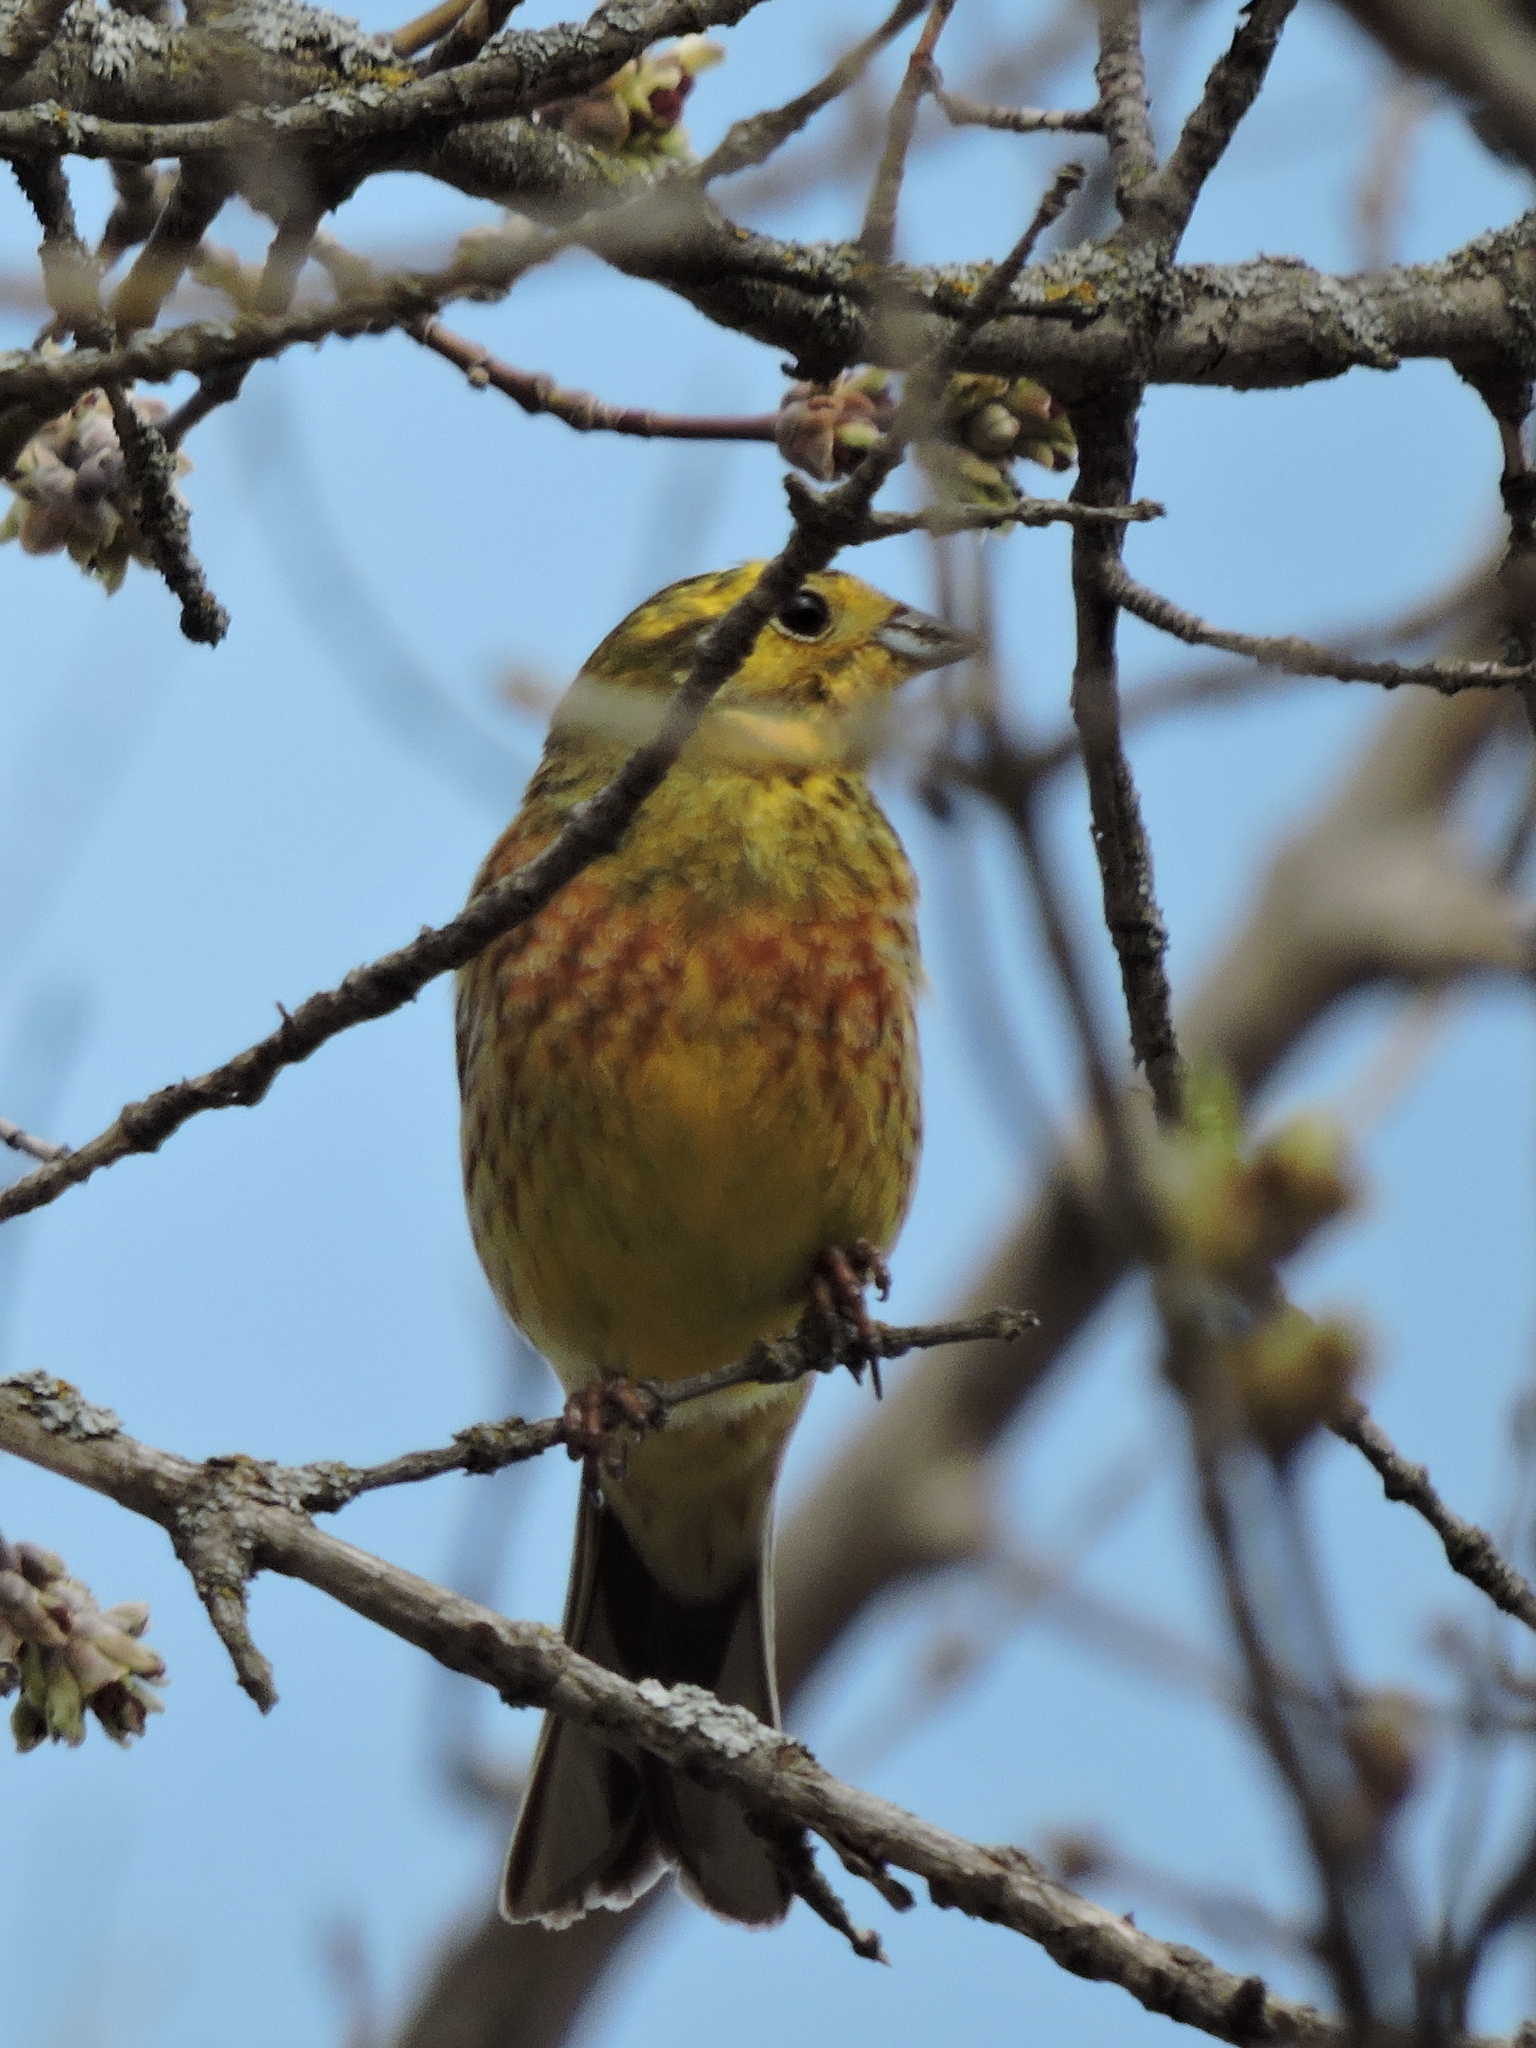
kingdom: Animalia
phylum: Chordata
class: Aves
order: Passeriformes
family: Emberizidae
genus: Emberiza
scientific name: Emberiza citrinella
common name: Yellowhammer
